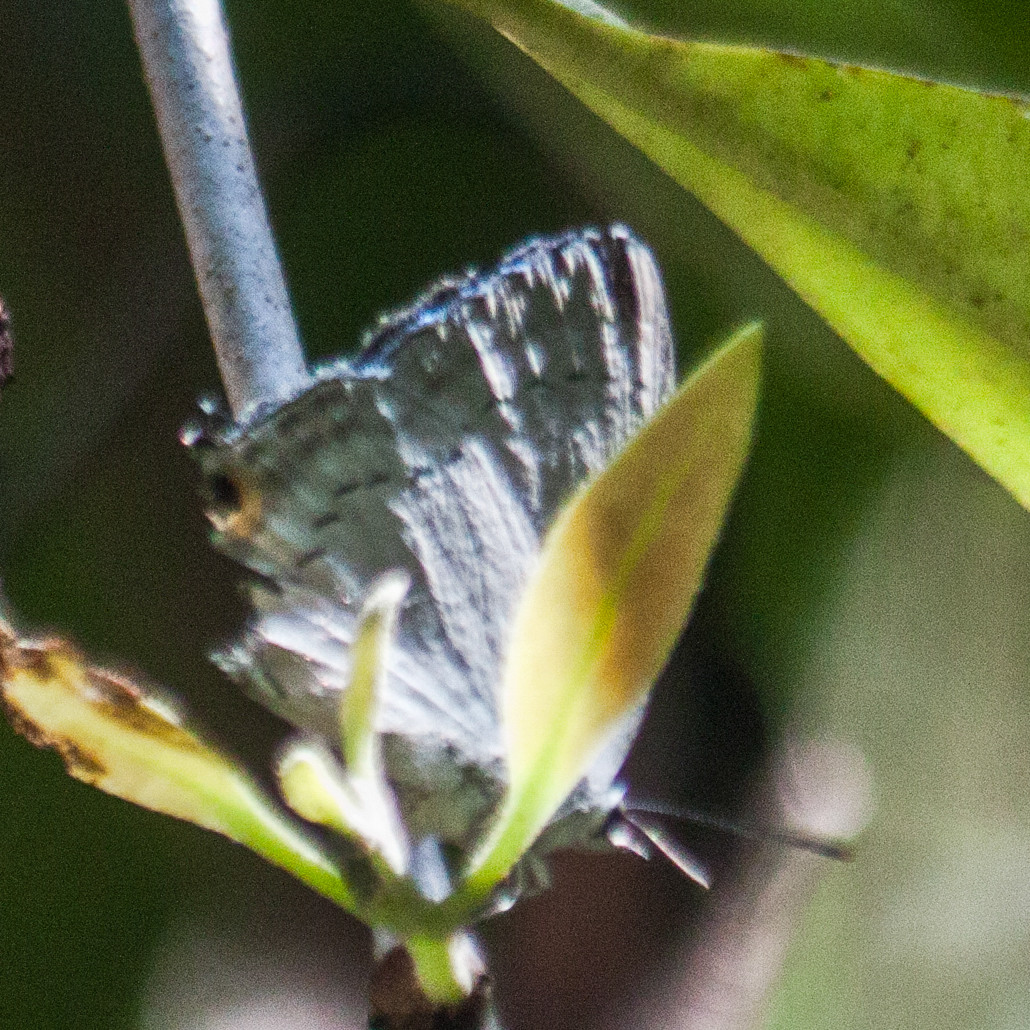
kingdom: Animalia
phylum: Arthropoda
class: Insecta
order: Lepidoptera
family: Lycaenidae
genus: Tajuria
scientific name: Tajuria cippus
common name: Peacock royal
